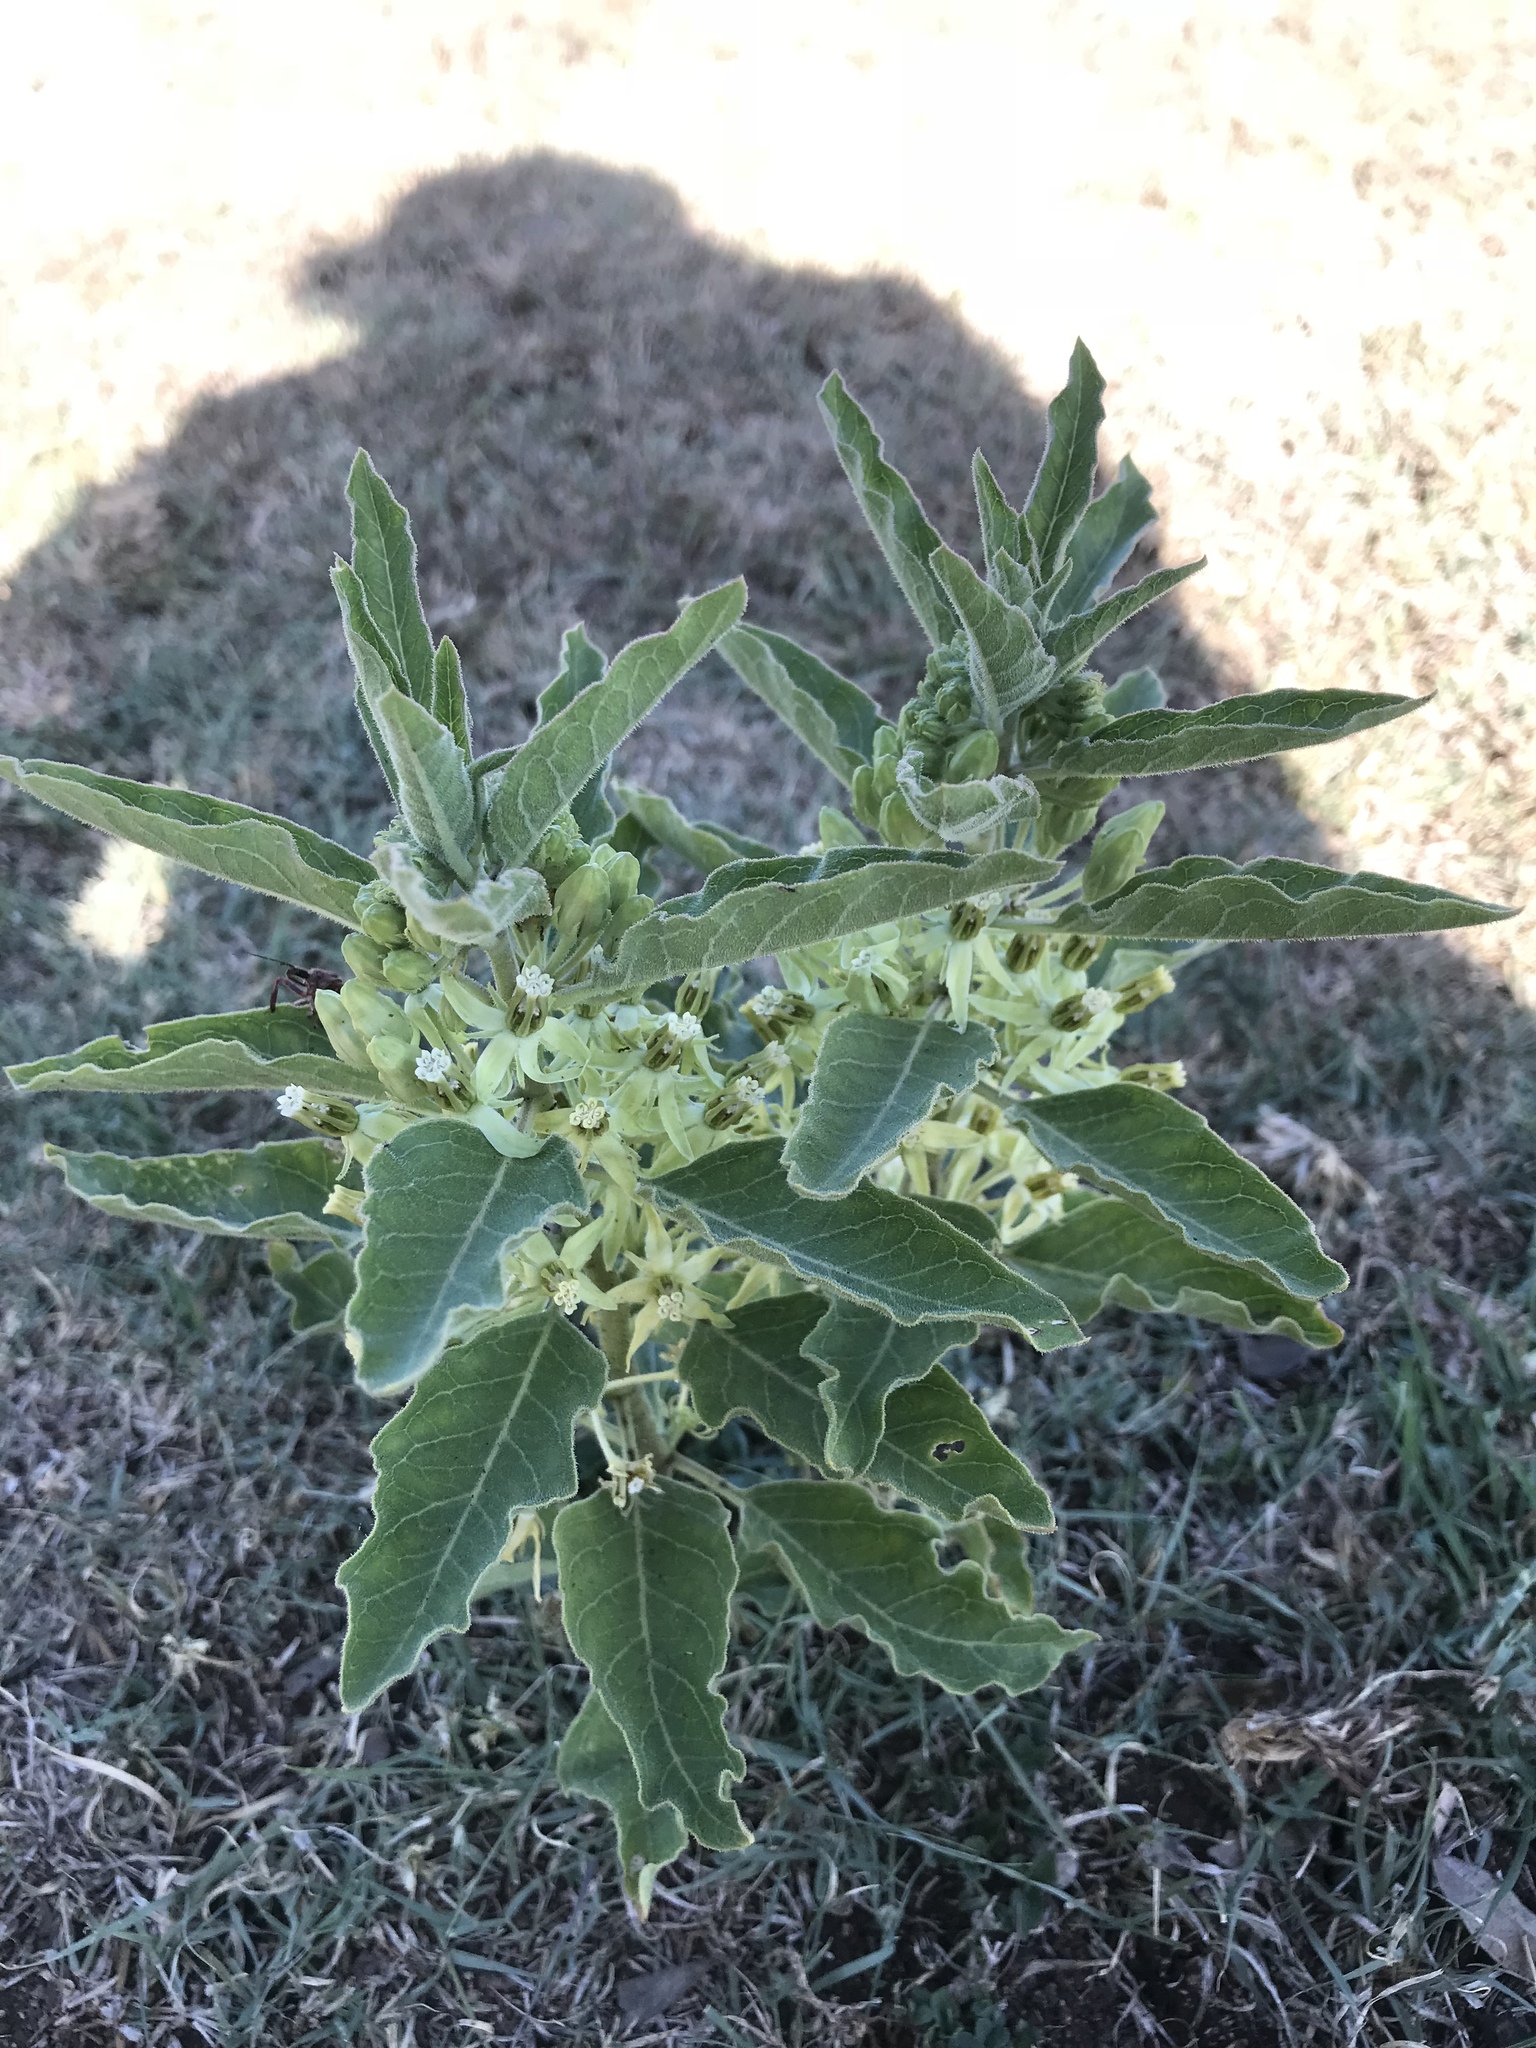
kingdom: Plantae
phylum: Tracheophyta
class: Magnoliopsida
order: Gentianales
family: Apocynaceae
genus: Asclepias
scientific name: Asclepias oenotheroides
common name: Zizotes milkweed
